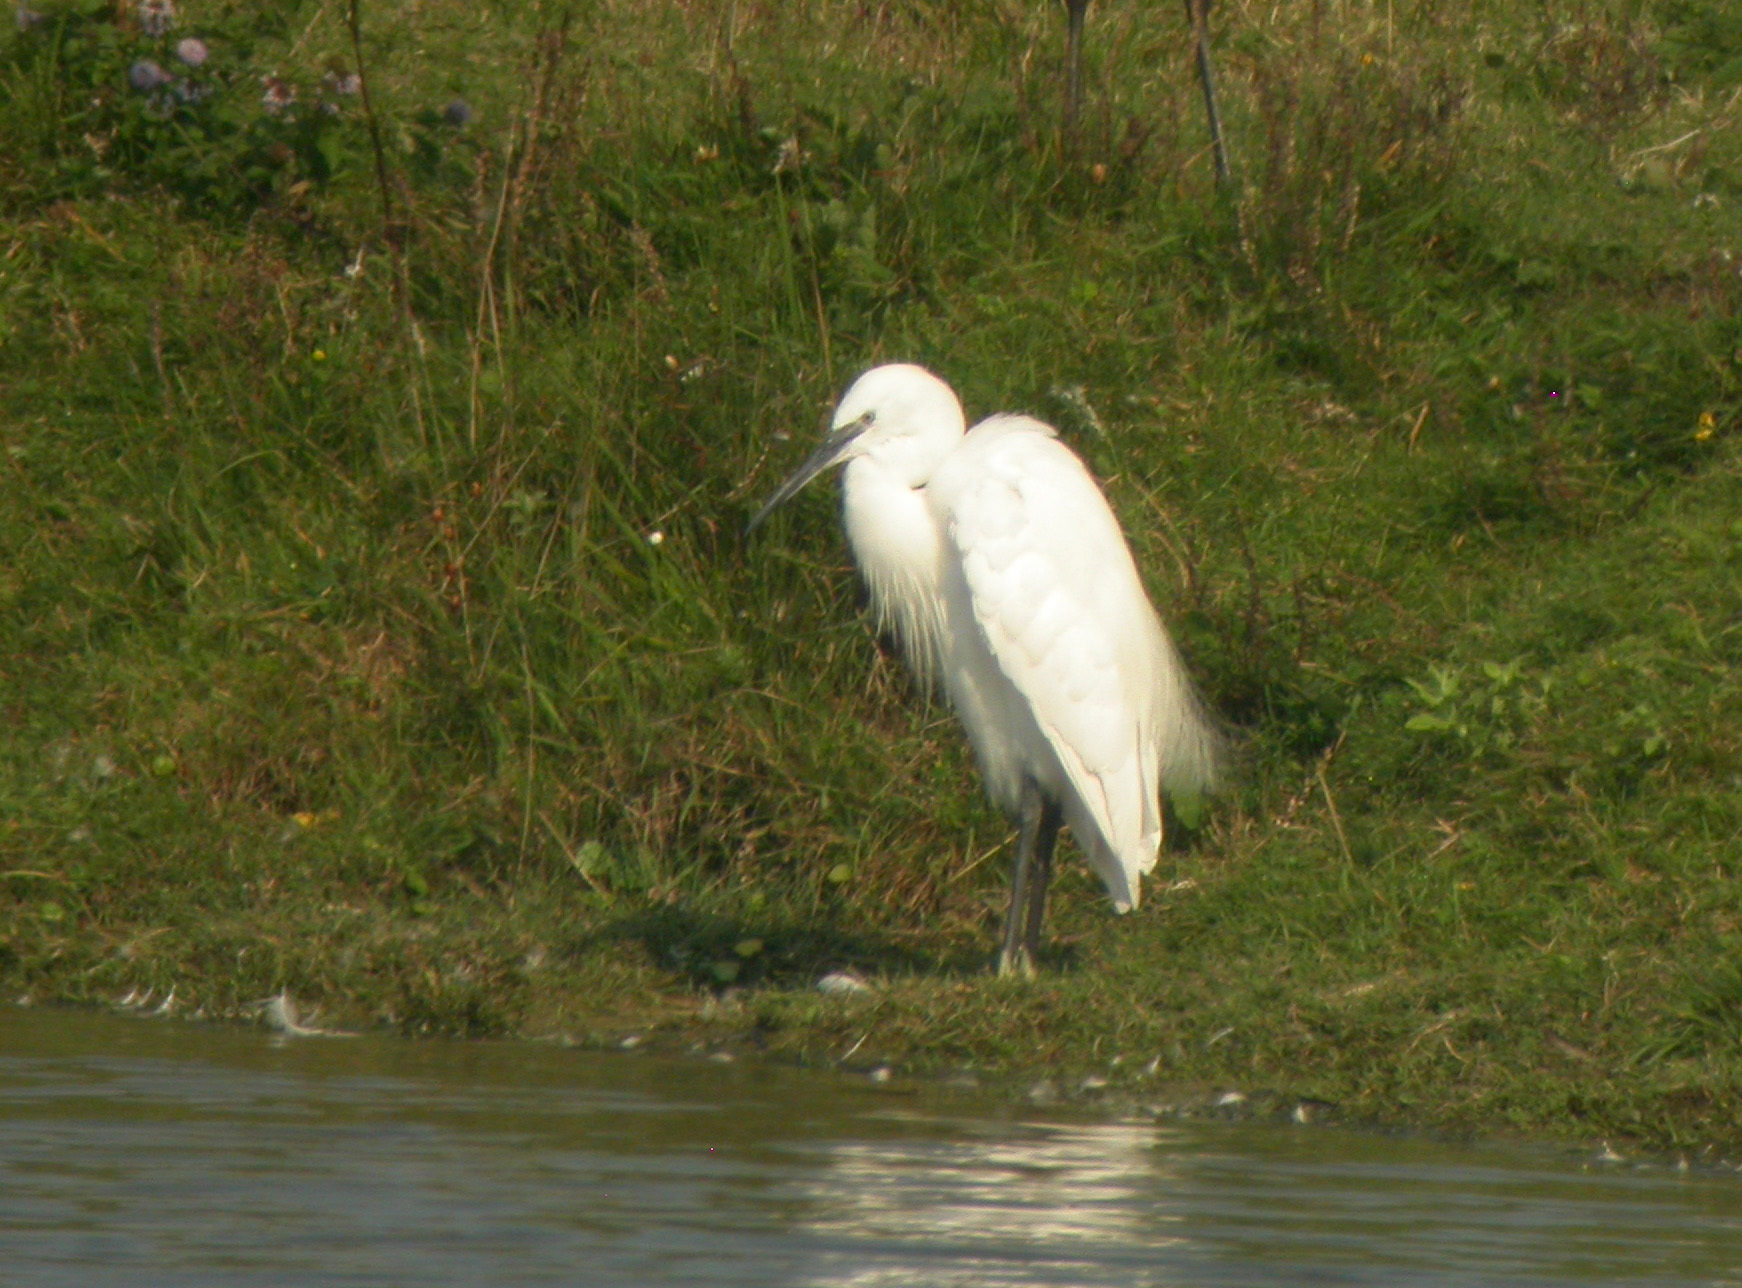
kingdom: Animalia
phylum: Chordata
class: Aves
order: Pelecaniformes
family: Ardeidae
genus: Egretta
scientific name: Egretta garzetta
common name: Little egret
